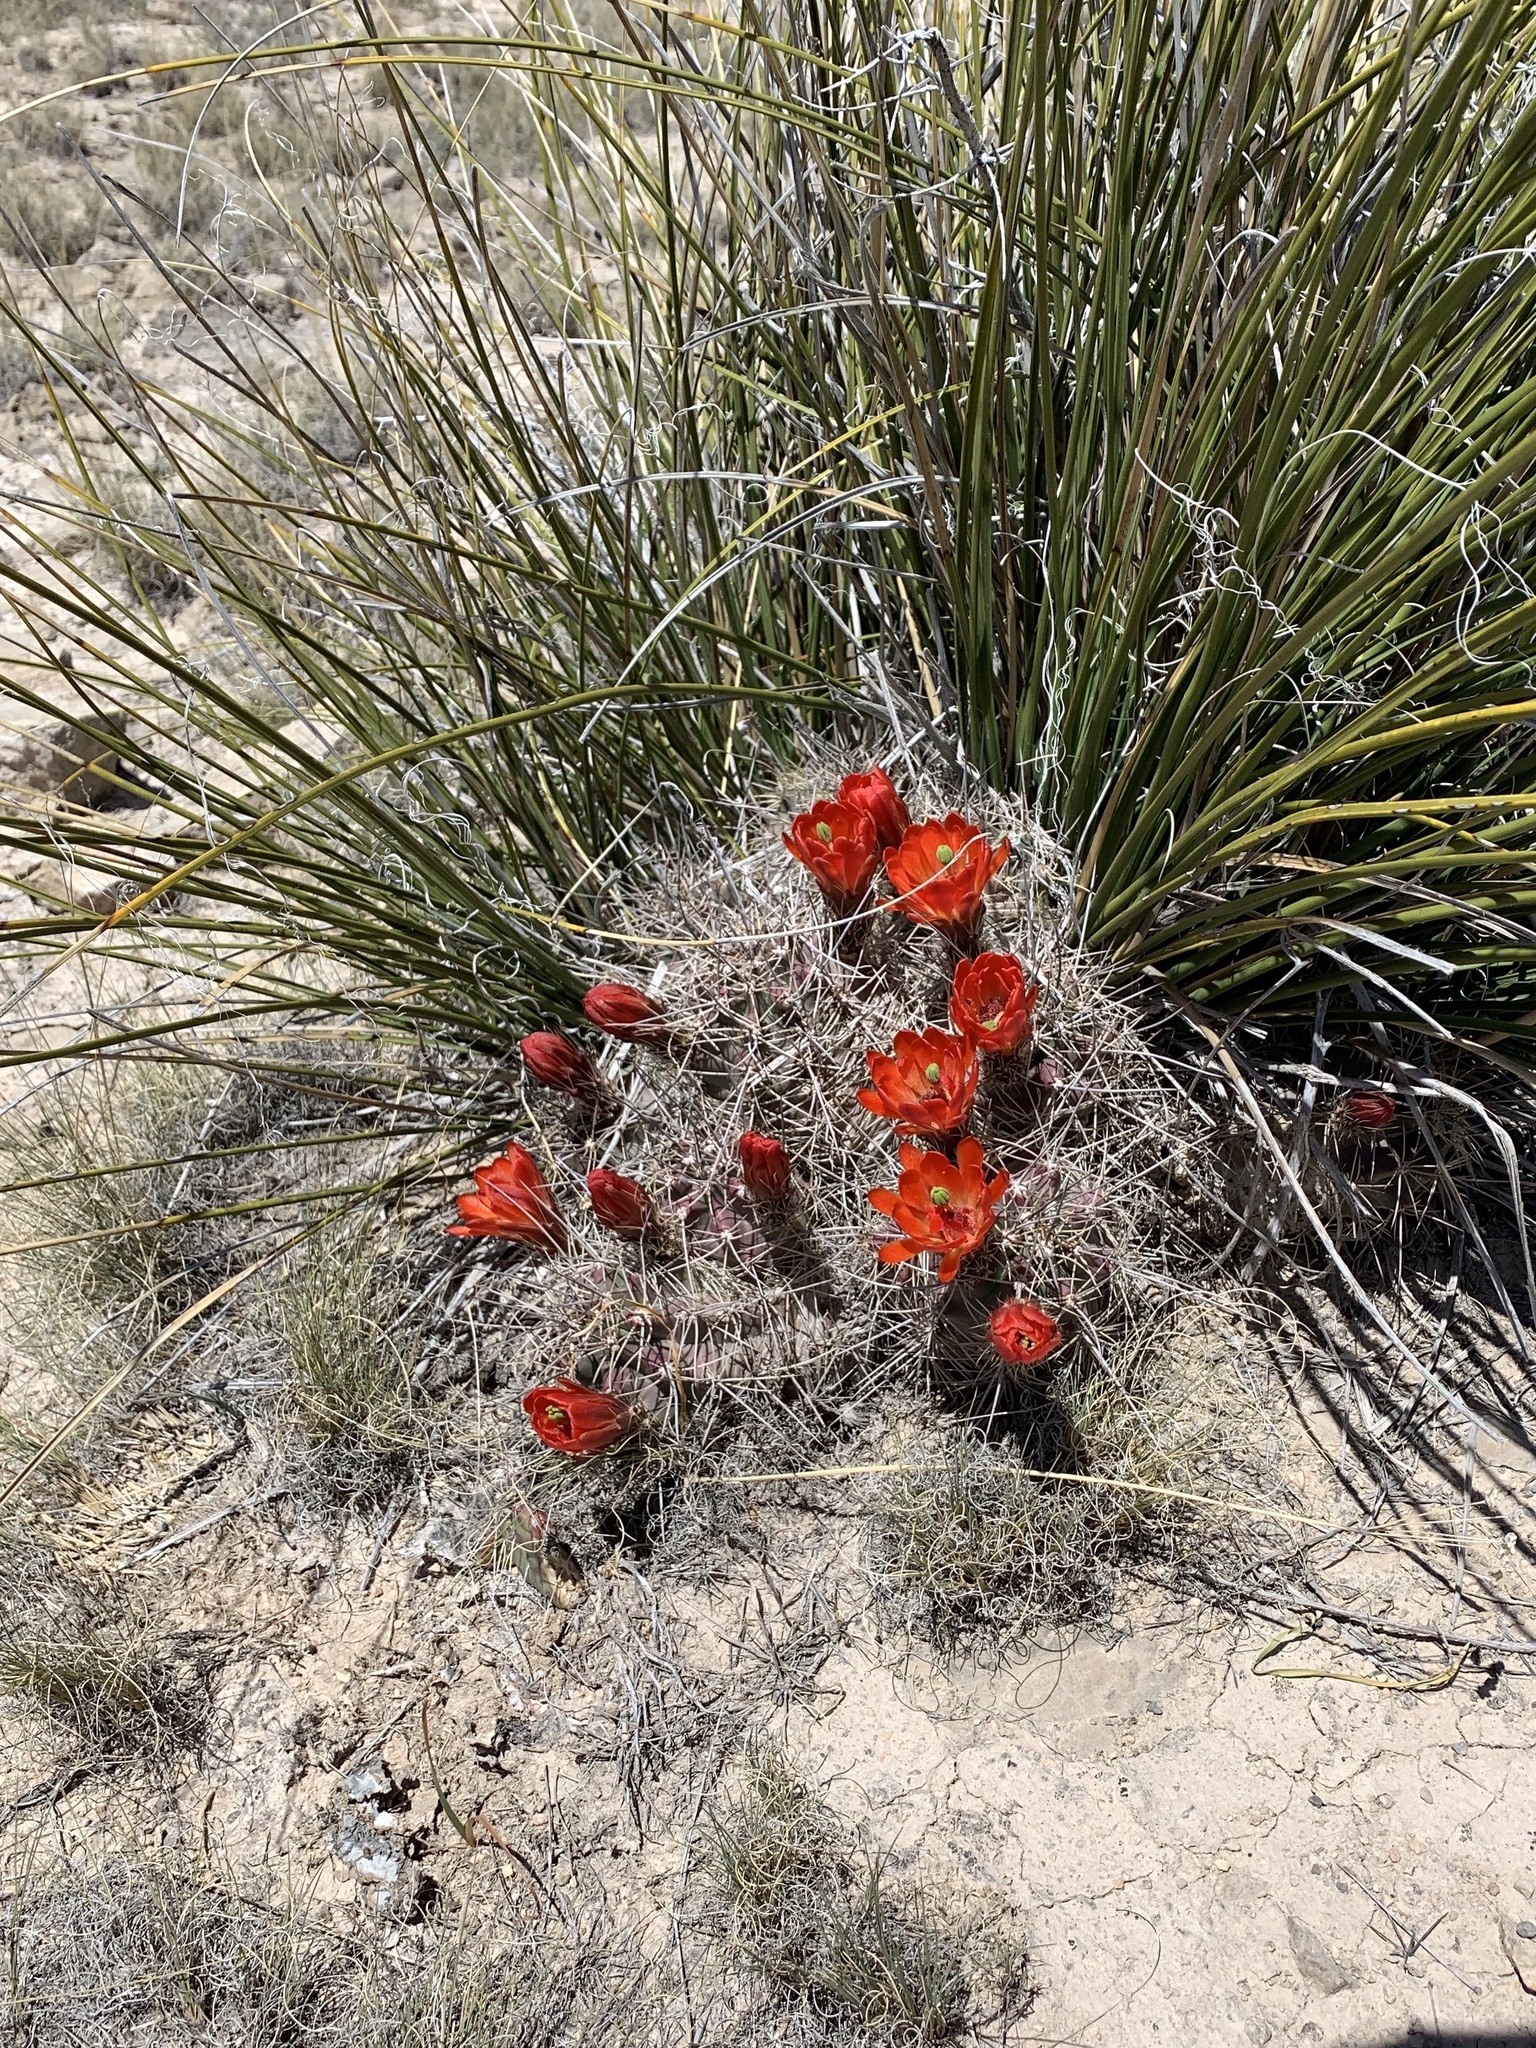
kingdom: Plantae
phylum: Tracheophyta
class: Magnoliopsida
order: Caryophyllales
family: Cactaceae
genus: Echinocereus
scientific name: Echinocereus coccineus
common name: Scarlet hedgehog cactus
